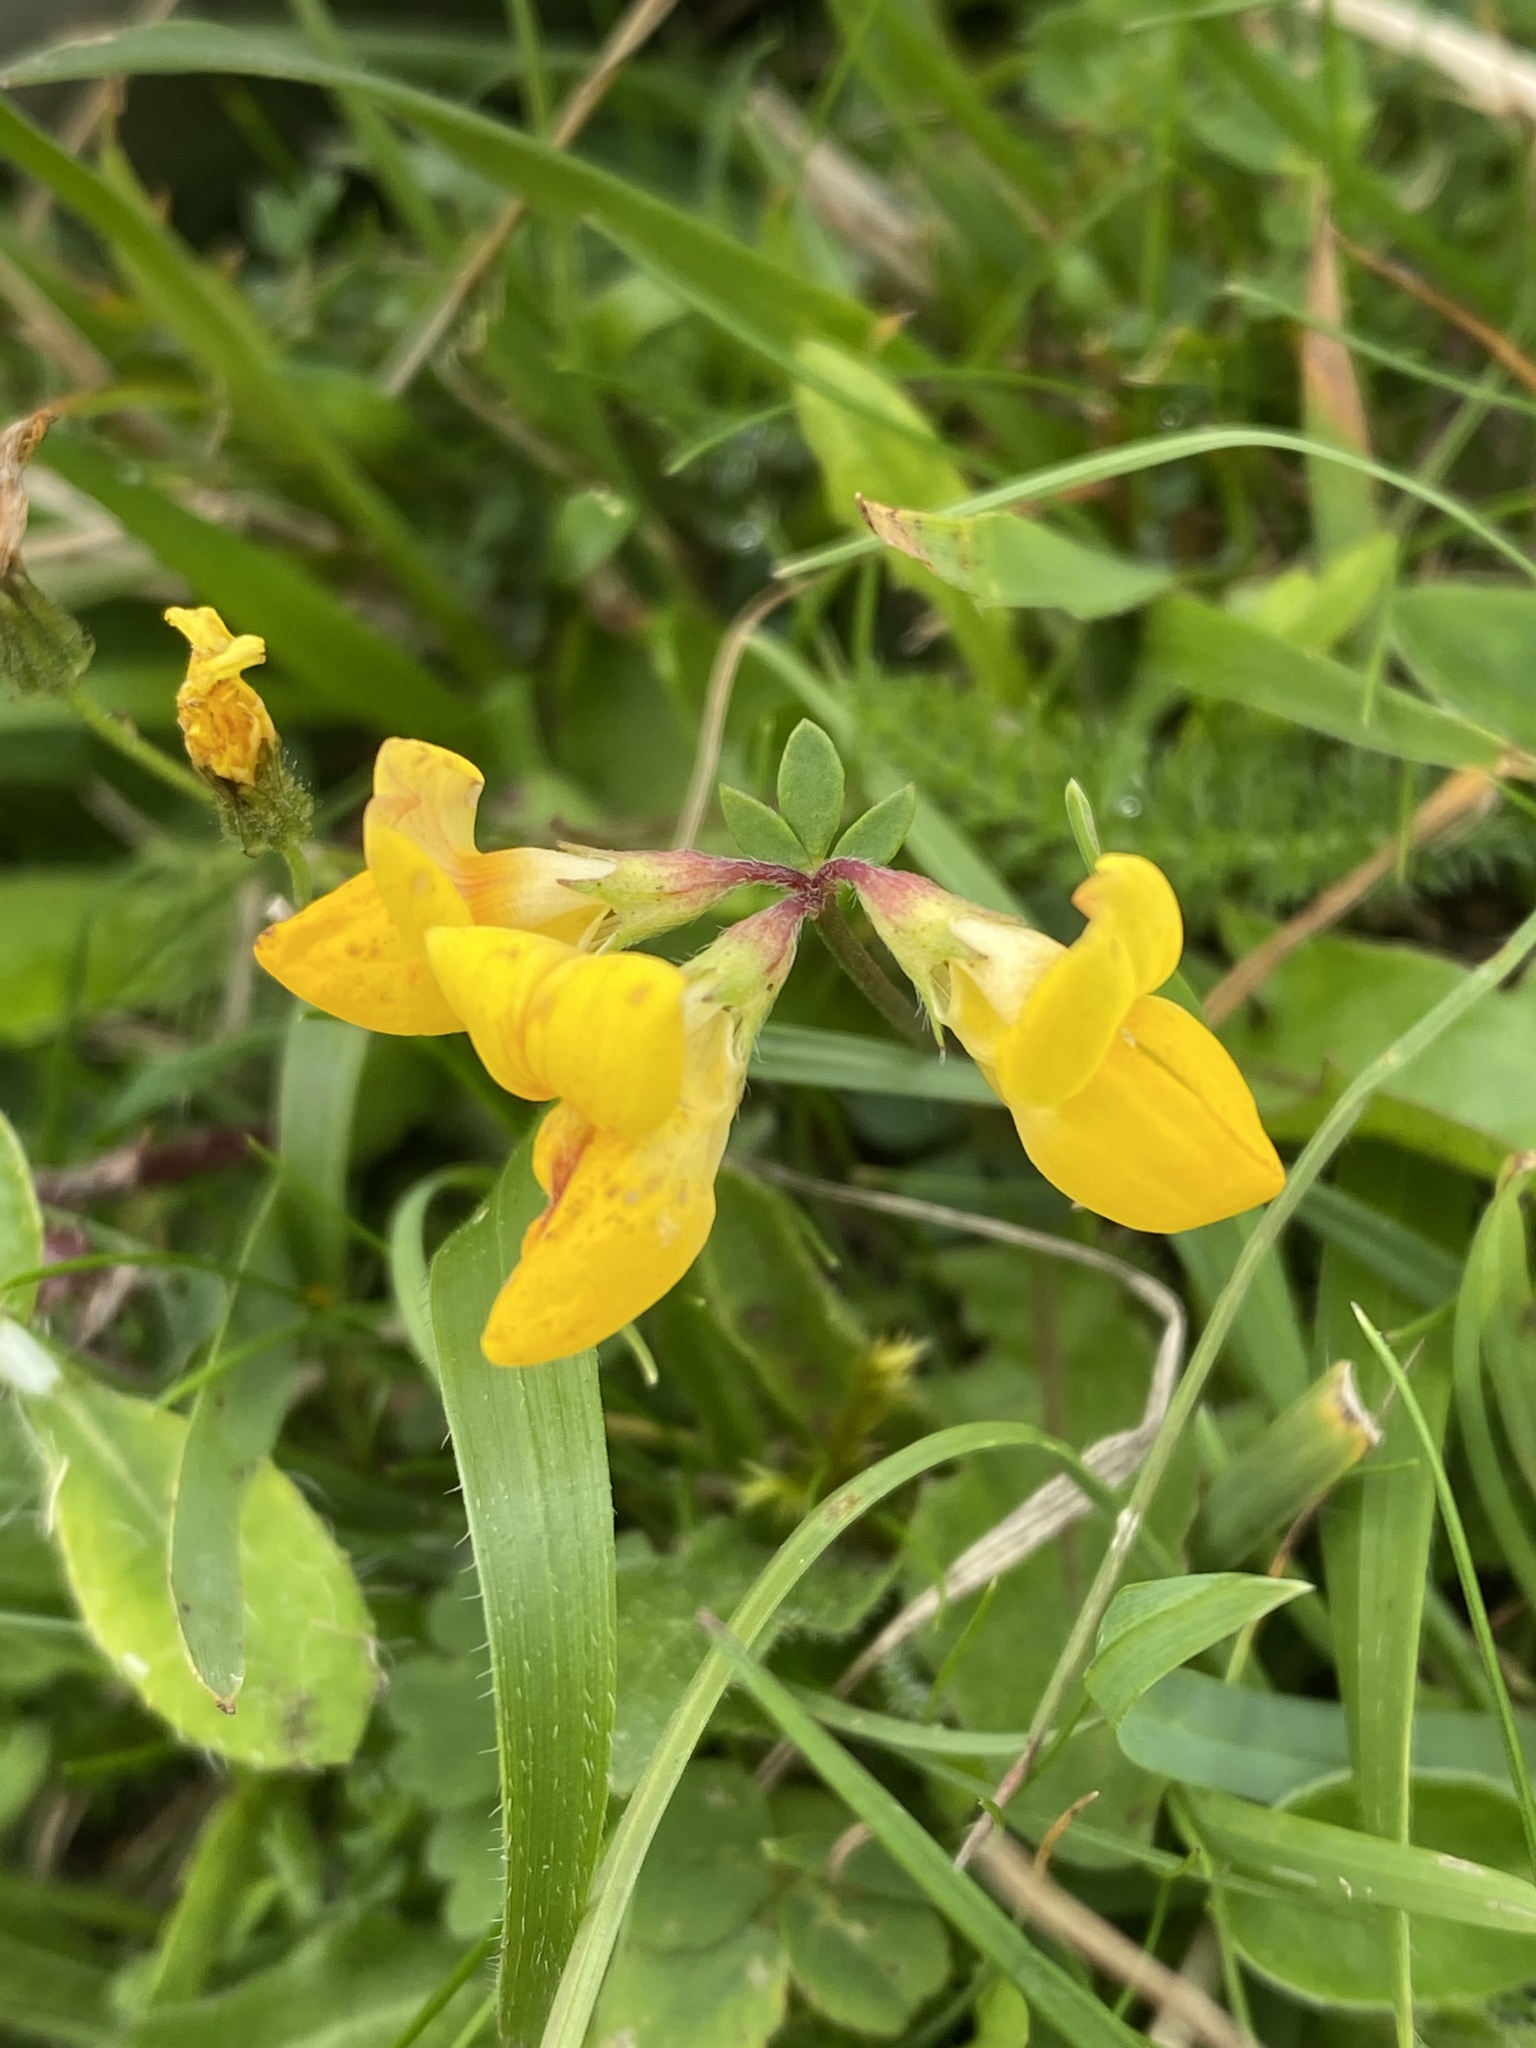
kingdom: Plantae
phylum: Tracheophyta
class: Magnoliopsida
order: Fabales
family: Fabaceae
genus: Lotus
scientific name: Lotus corniculatus
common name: Common bird's-foot-trefoil
